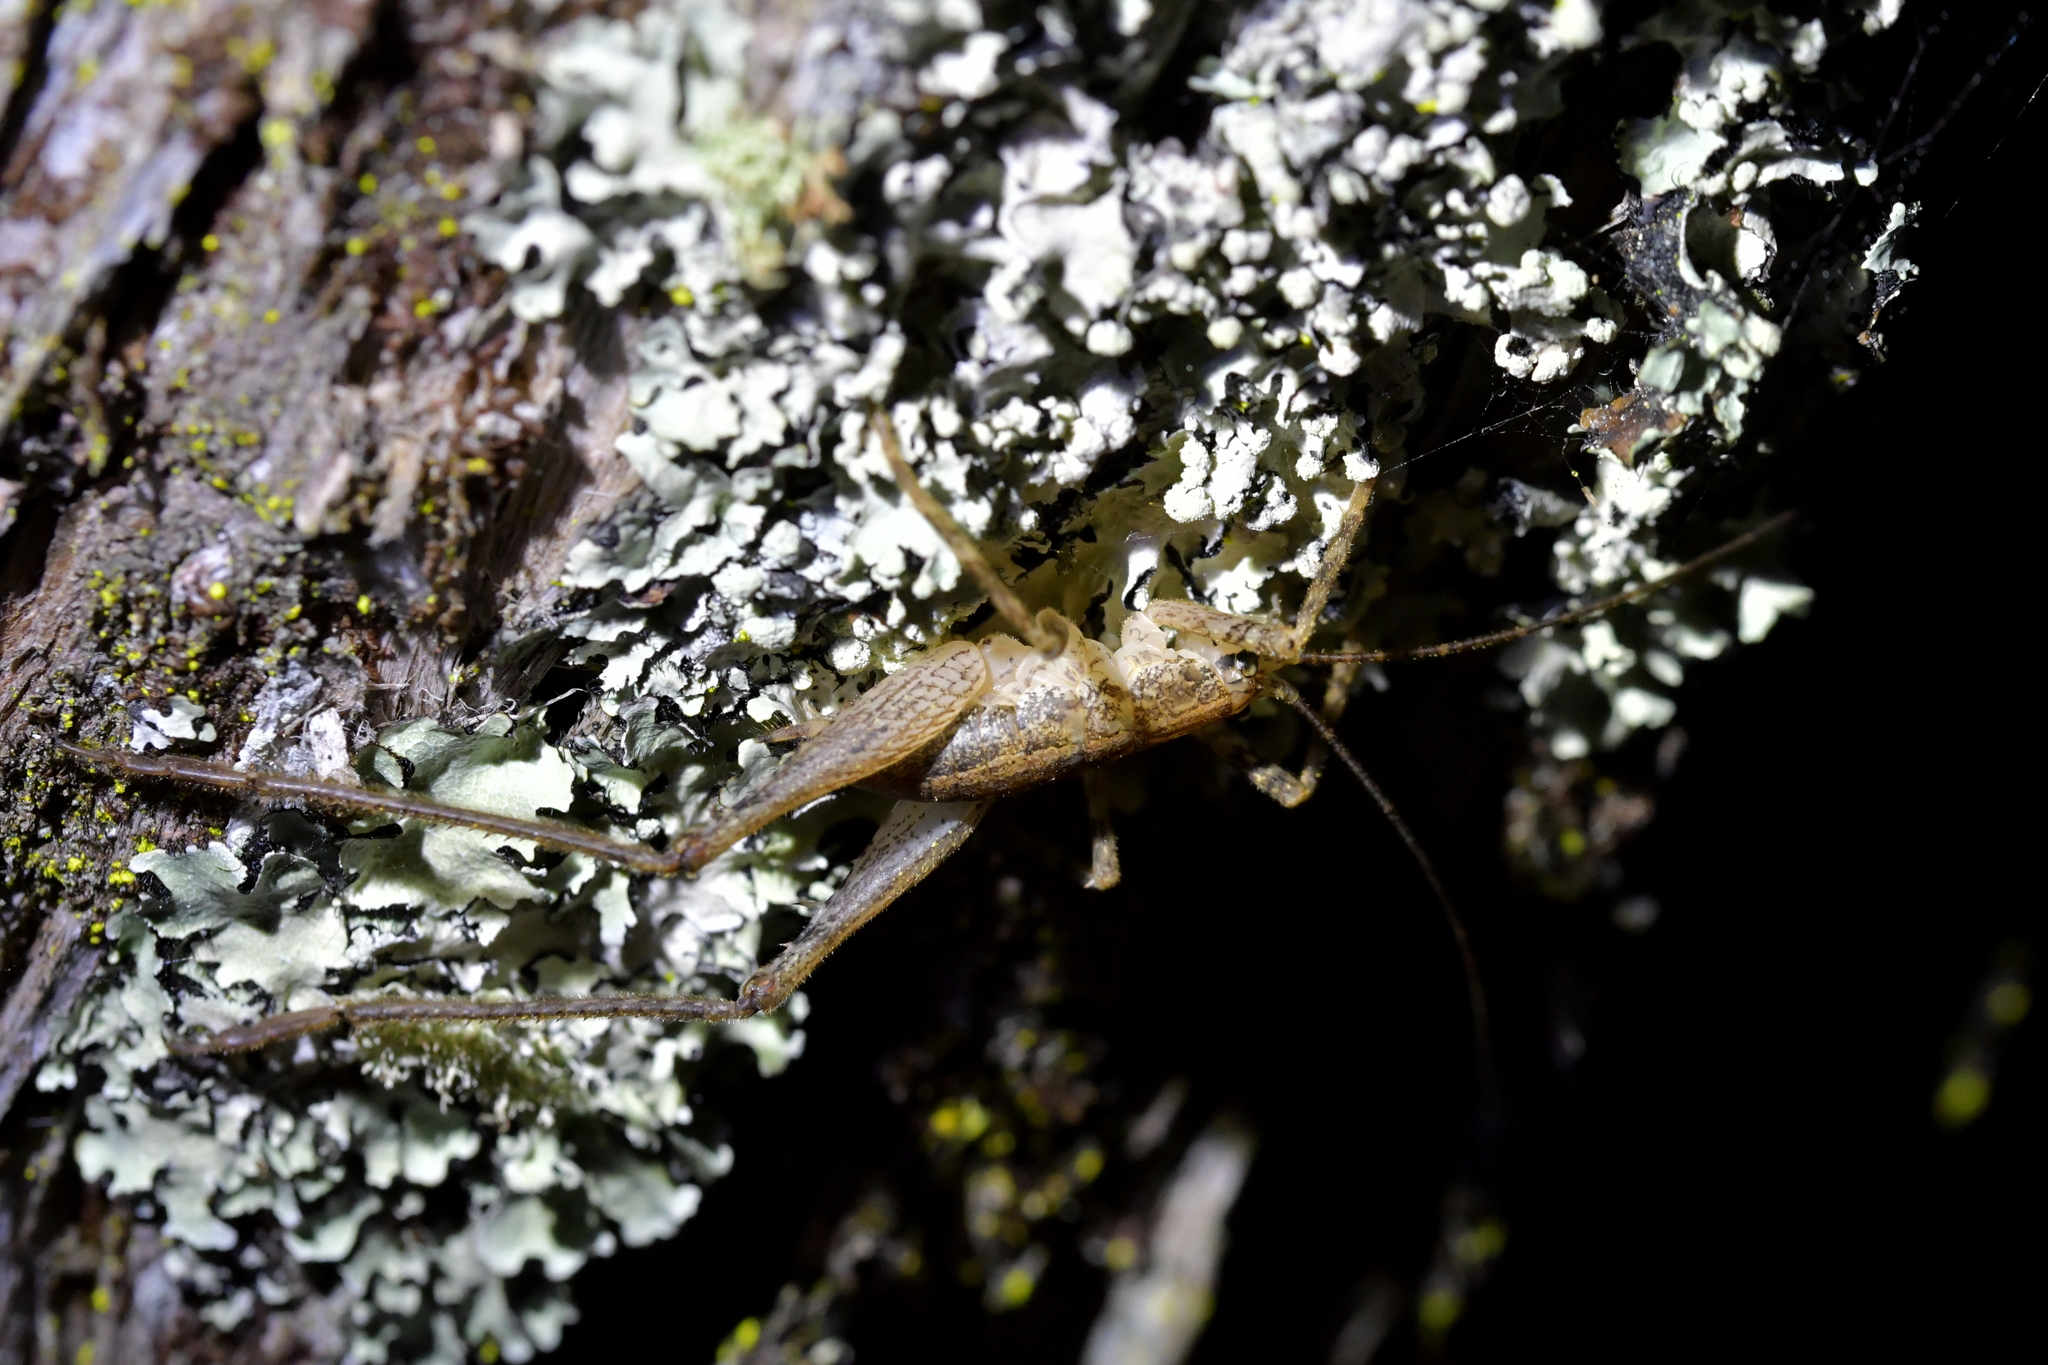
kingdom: Animalia
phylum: Arthropoda
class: Insecta
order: Orthoptera
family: Rhaphidophoridae
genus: Isoplectron
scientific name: Isoplectron armatum
